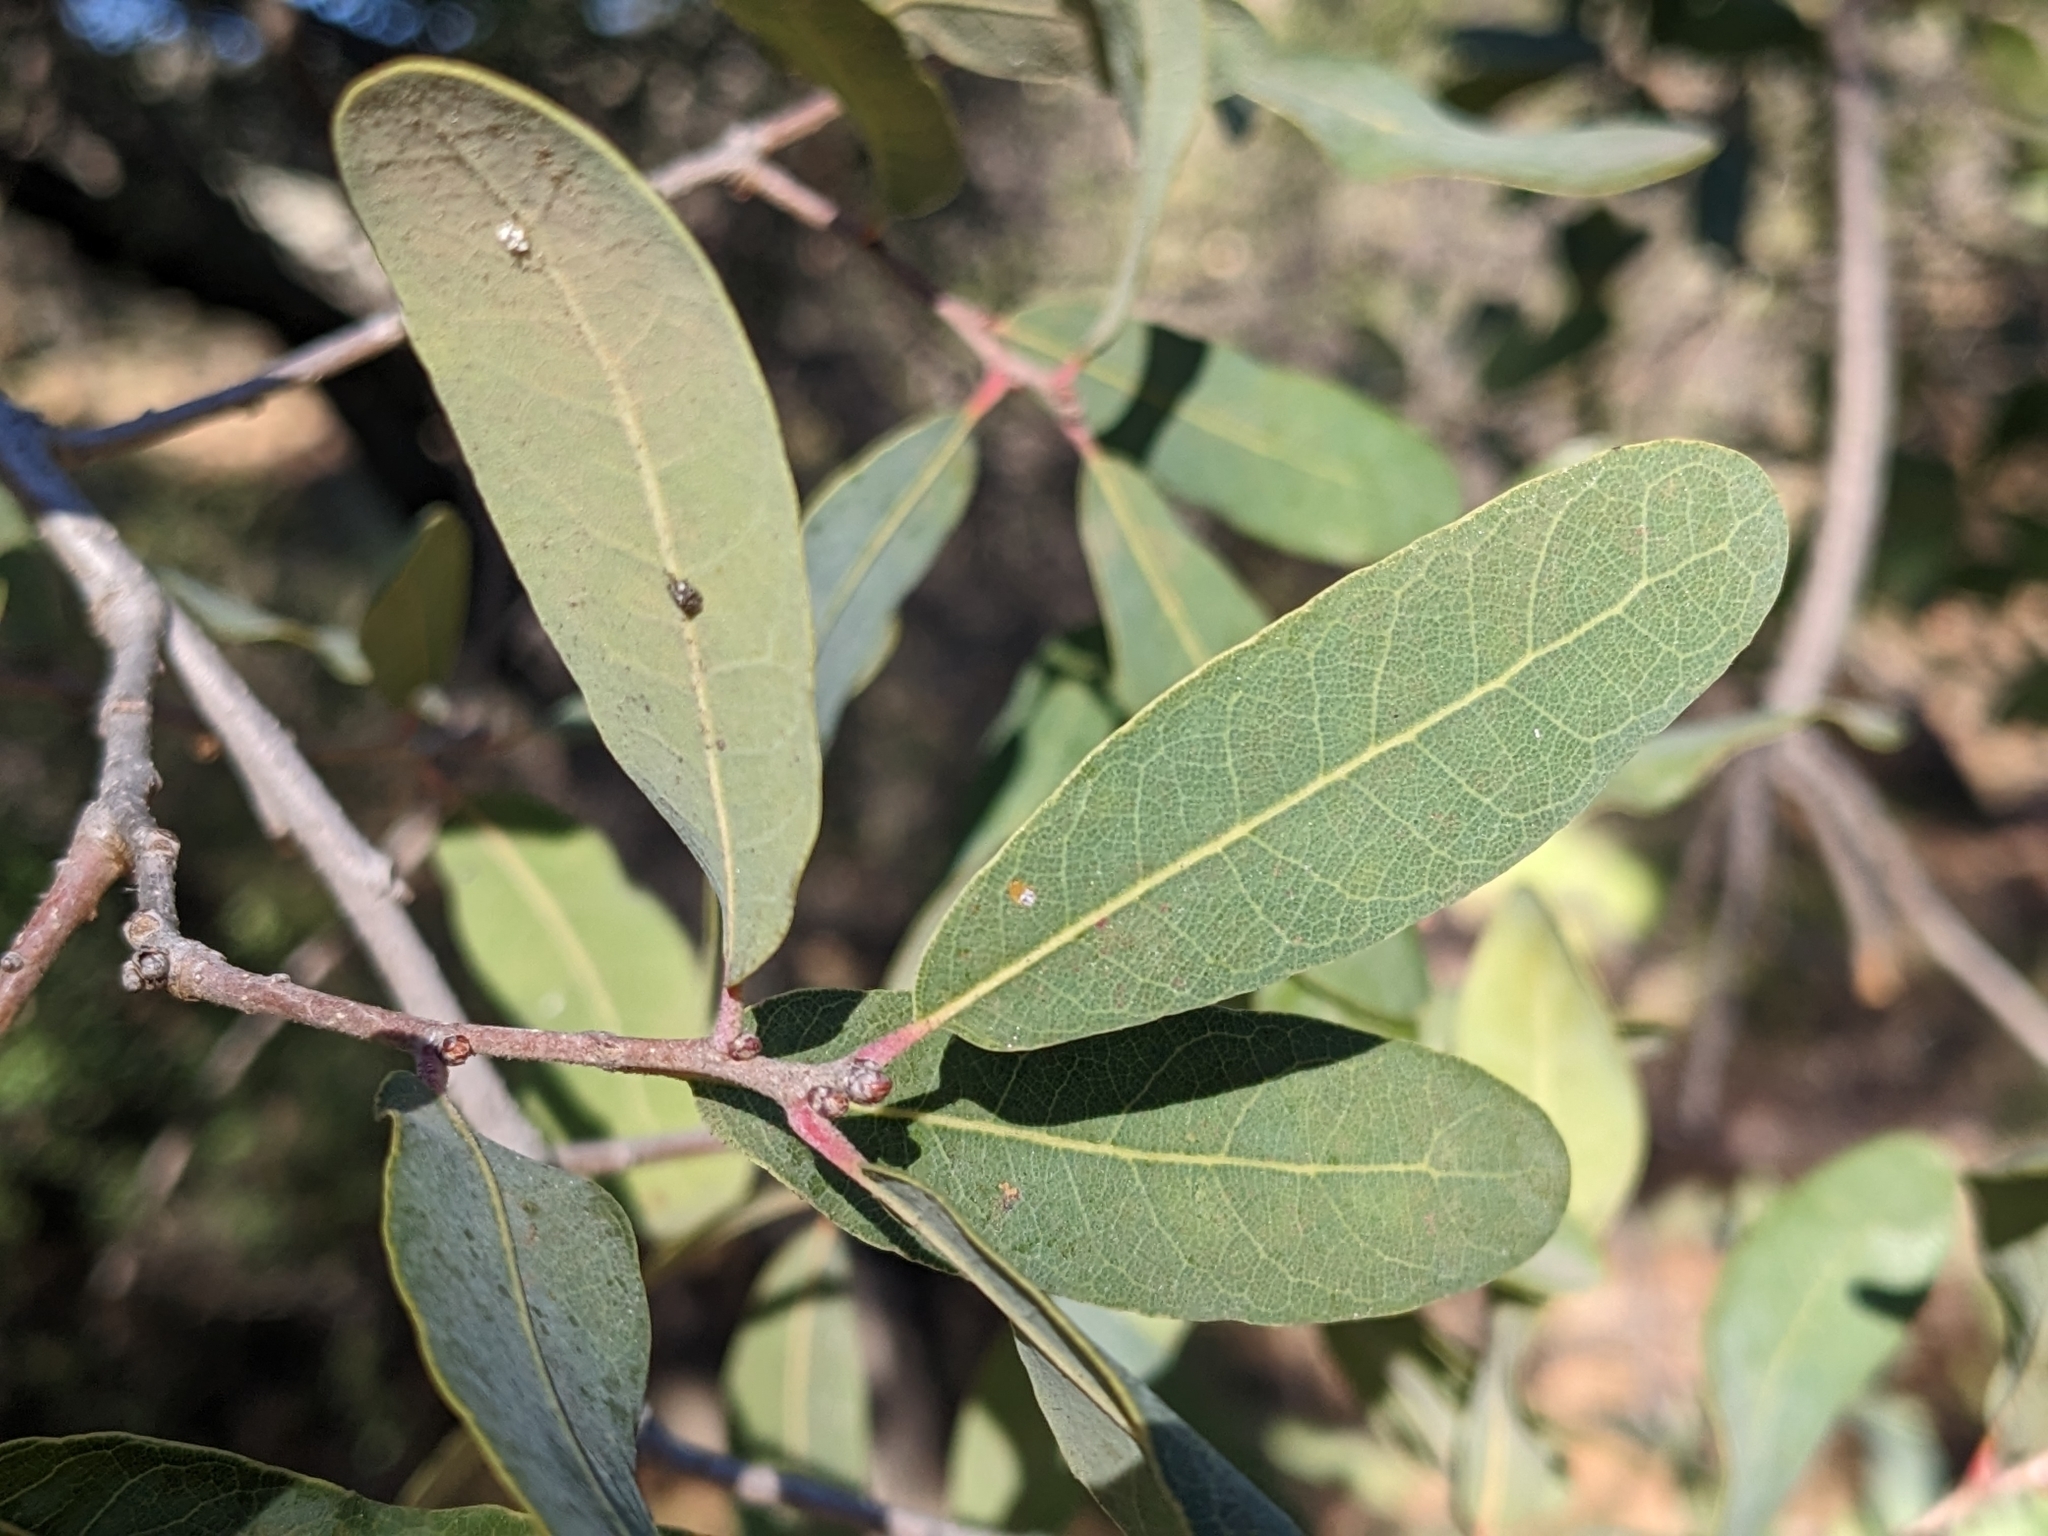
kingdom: Plantae
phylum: Tracheophyta
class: Magnoliopsida
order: Fagales
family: Fagaceae
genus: Quercus
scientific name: Quercus engelmannii
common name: Engelmann oak
